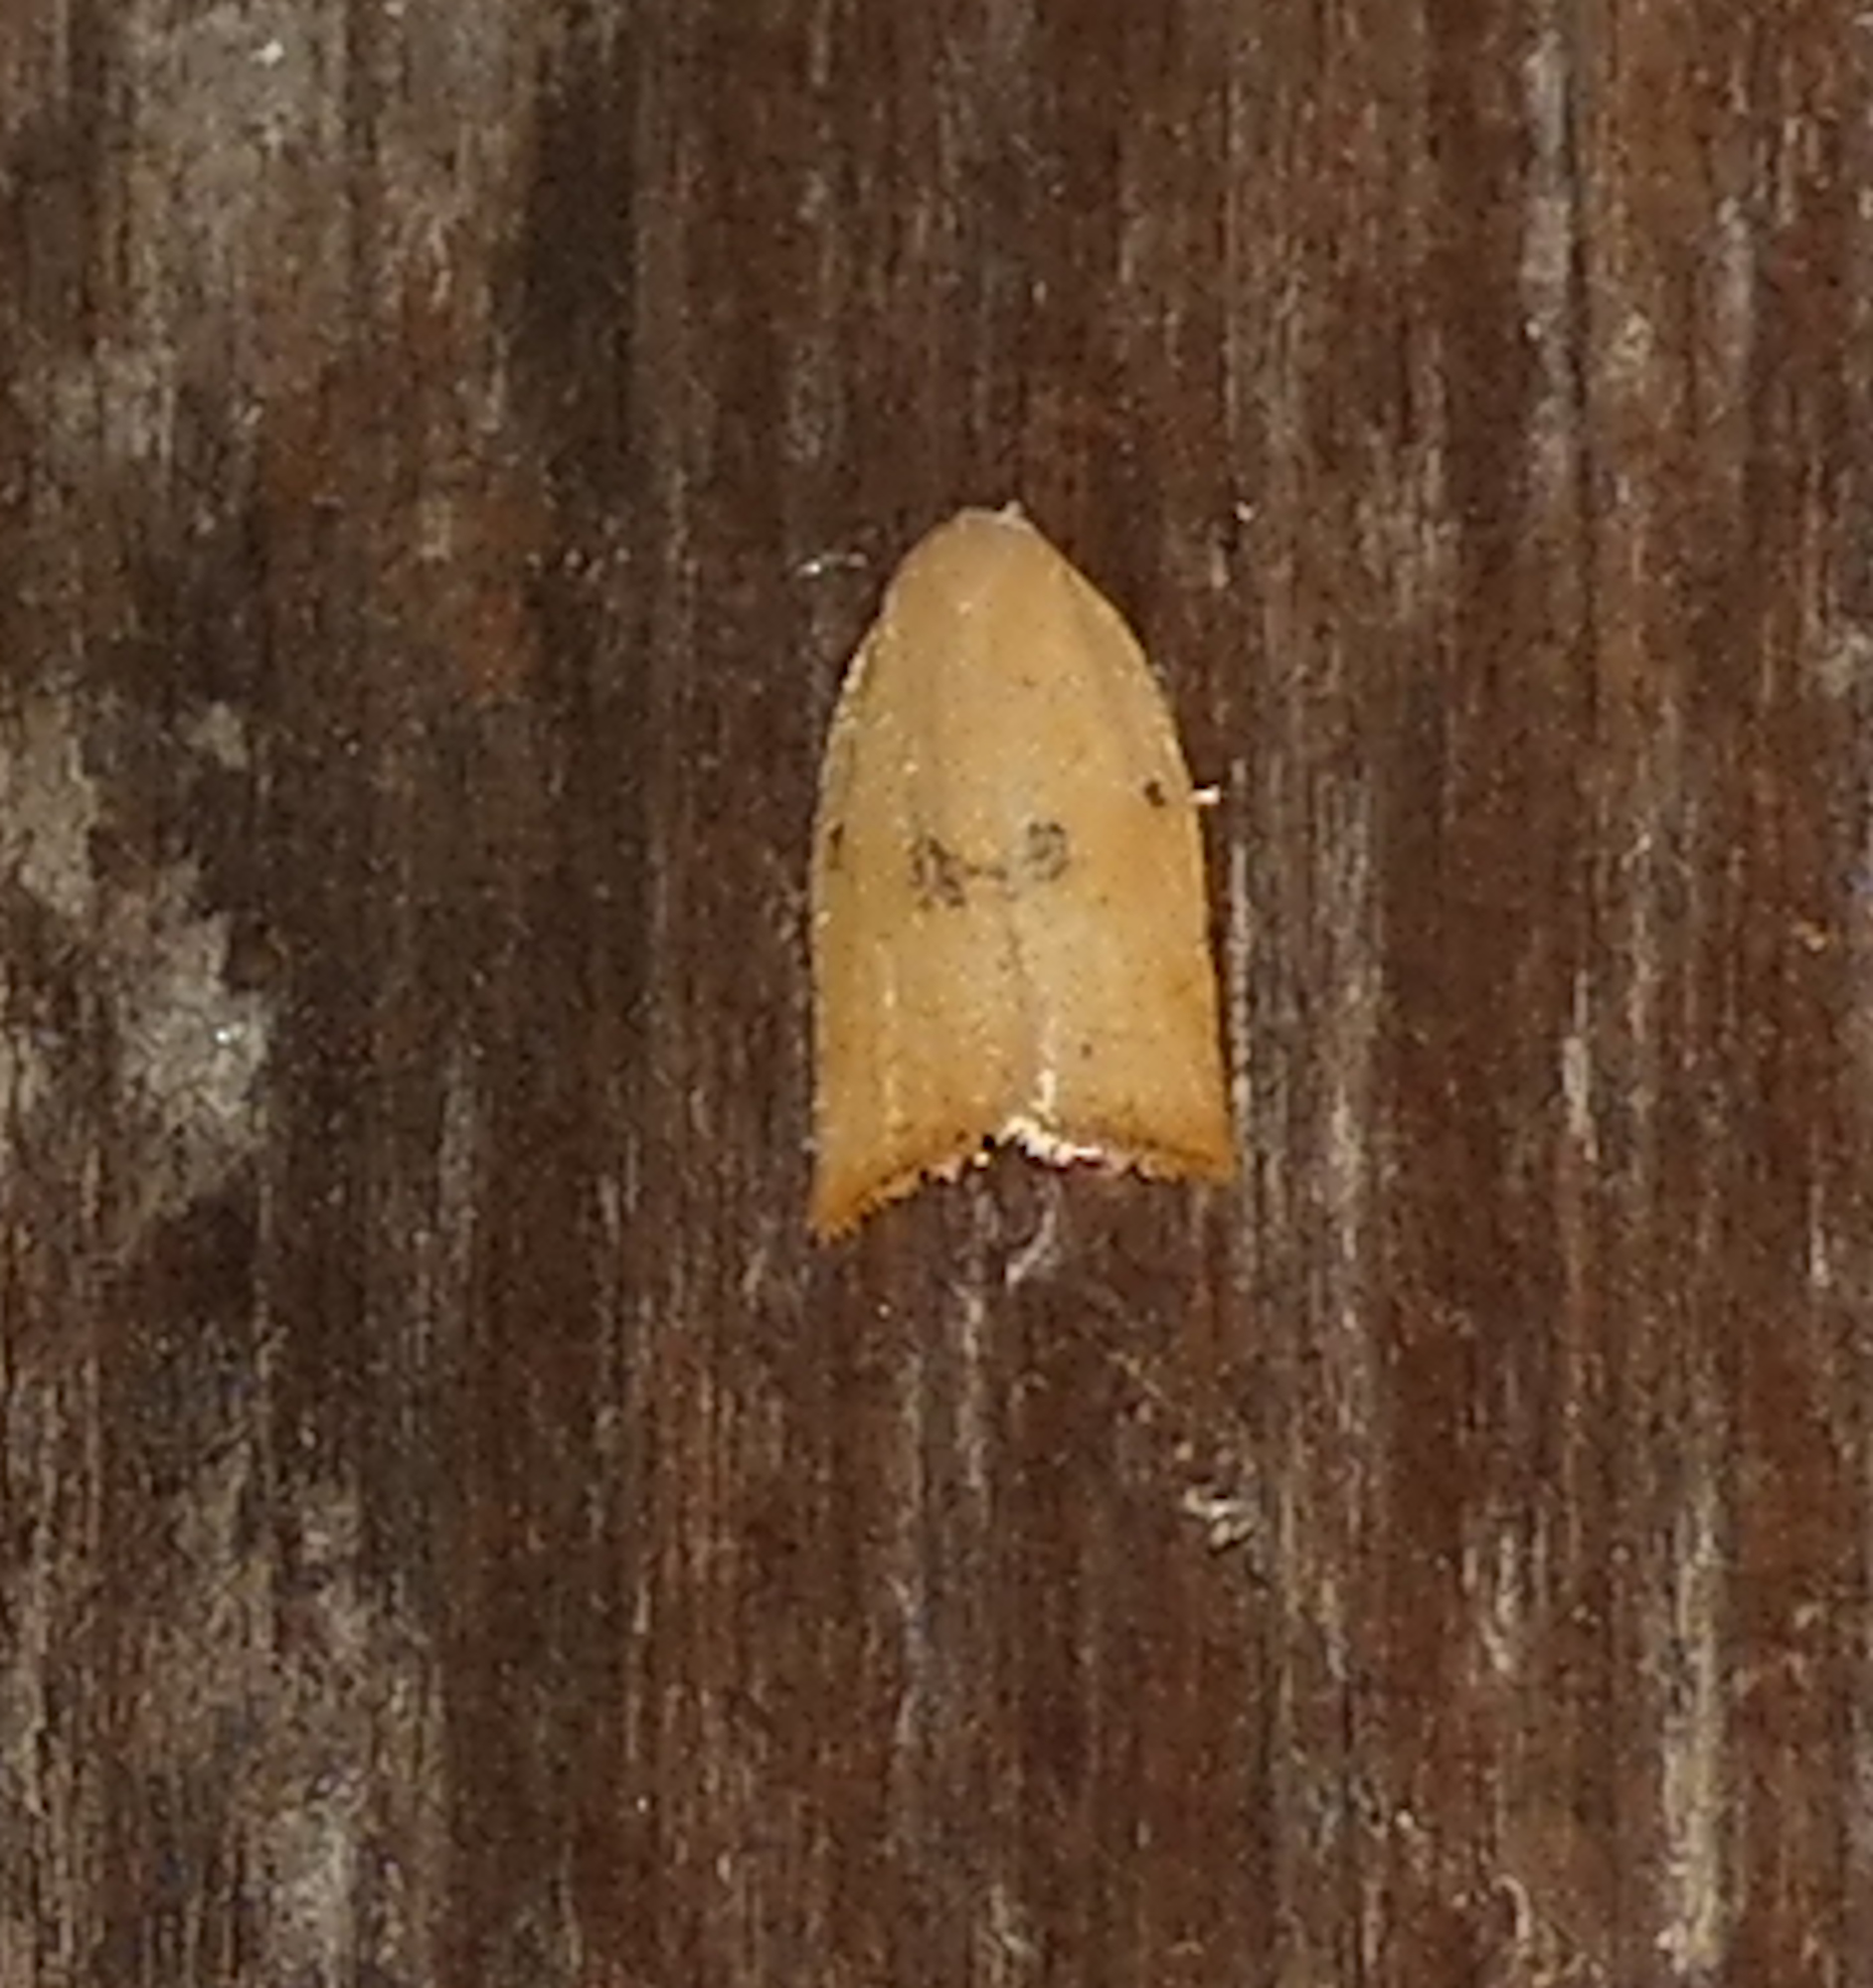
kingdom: Animalia
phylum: Arthropoda
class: Insecta
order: Lepidoptera
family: Tortricidae
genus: Coelostathma
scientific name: Coelostathma placidana
